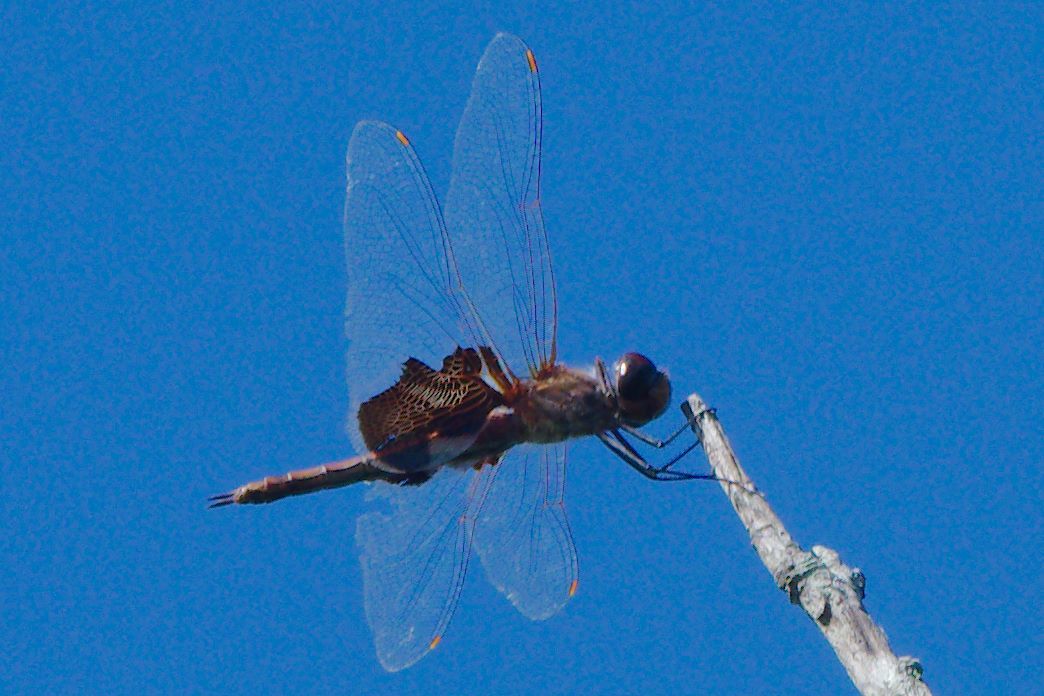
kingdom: Animalia
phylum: Arthropoda
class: Insecta
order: Odonata
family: Libellulidae
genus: Tramea
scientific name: Tramea carolina
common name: Carolina saddlebags
